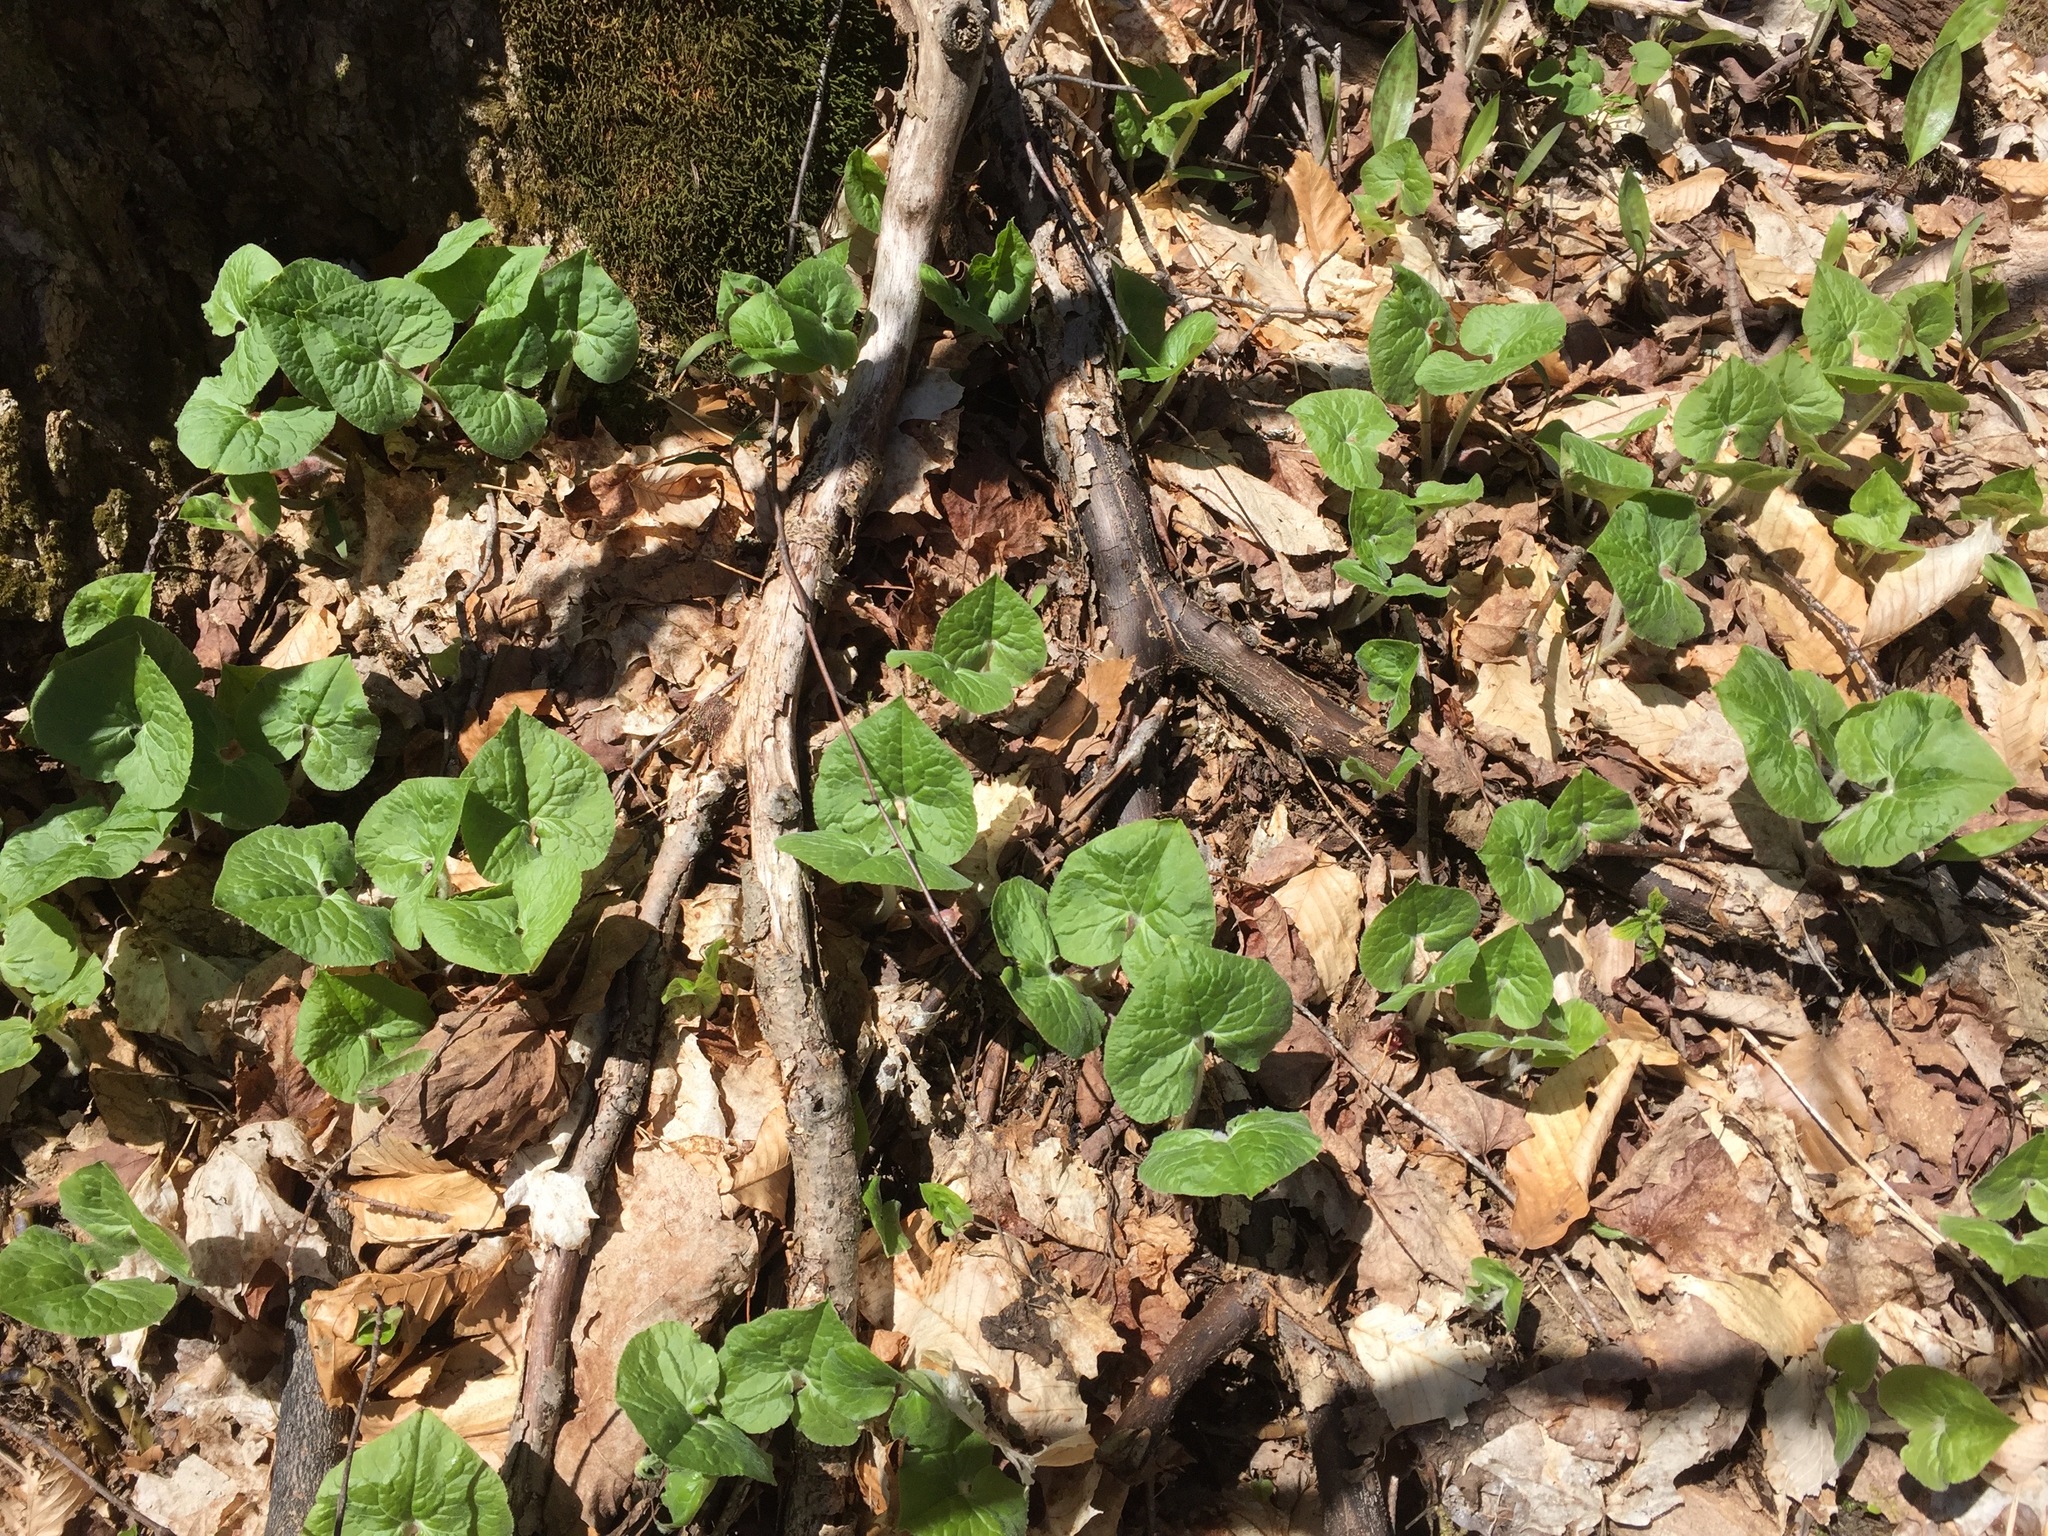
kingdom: Plantae
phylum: Tracheophyta
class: Magnoliopsida
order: Piperales
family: Aristolochiaceae
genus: Asarum
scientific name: Asarum canadense
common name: Wild ginger
